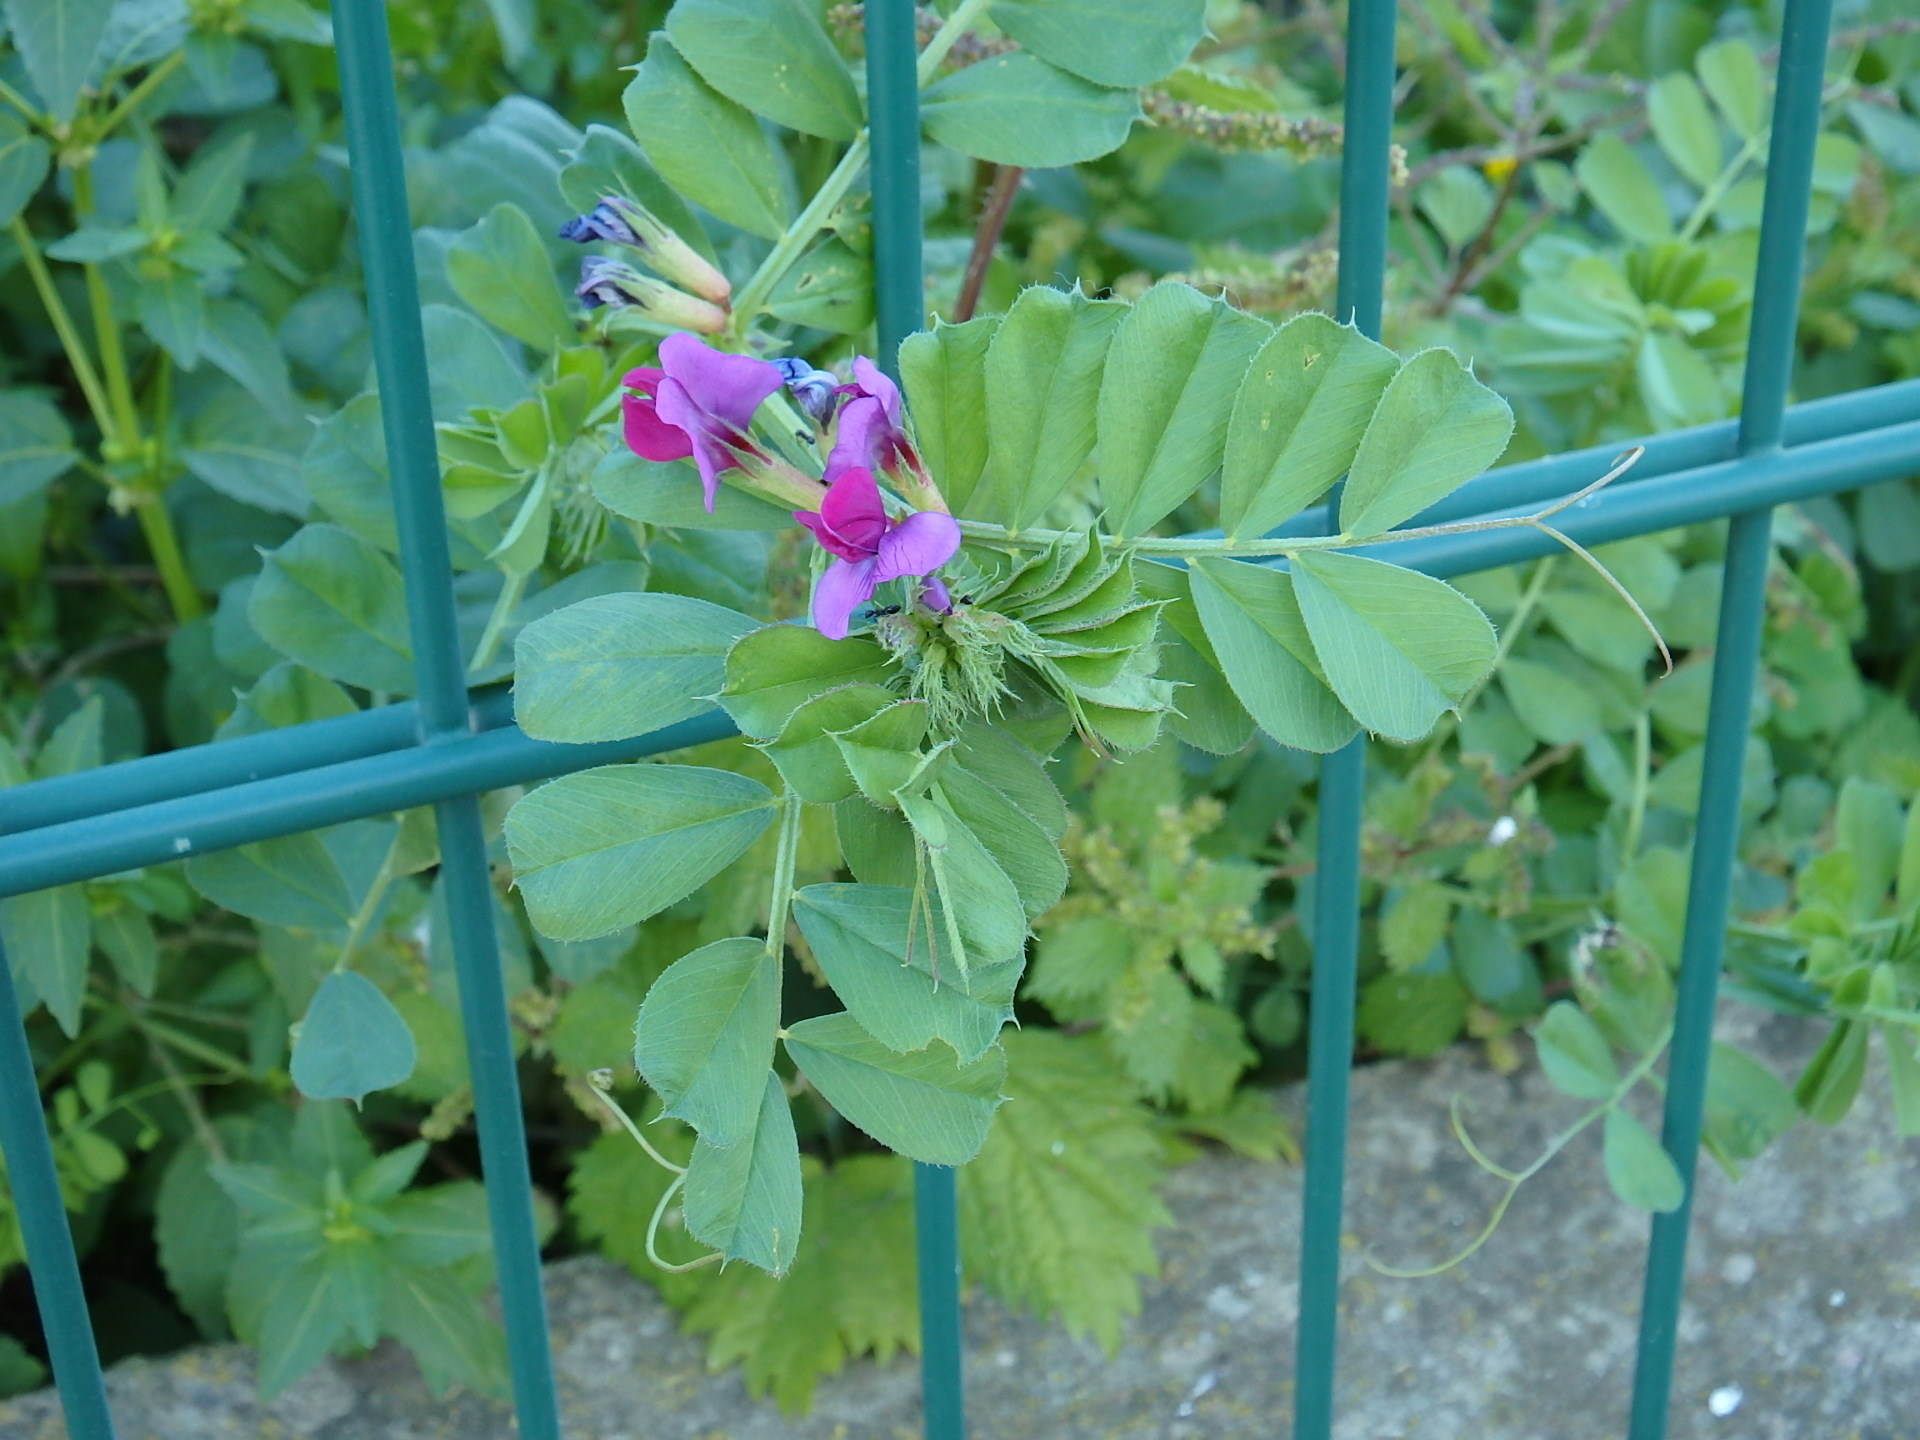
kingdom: Plantae
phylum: Tracheophyta
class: Magnoliopsida
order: Fabales
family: Fabaceae
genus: Vicia
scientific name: Vicia sativa
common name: Garden vetch
